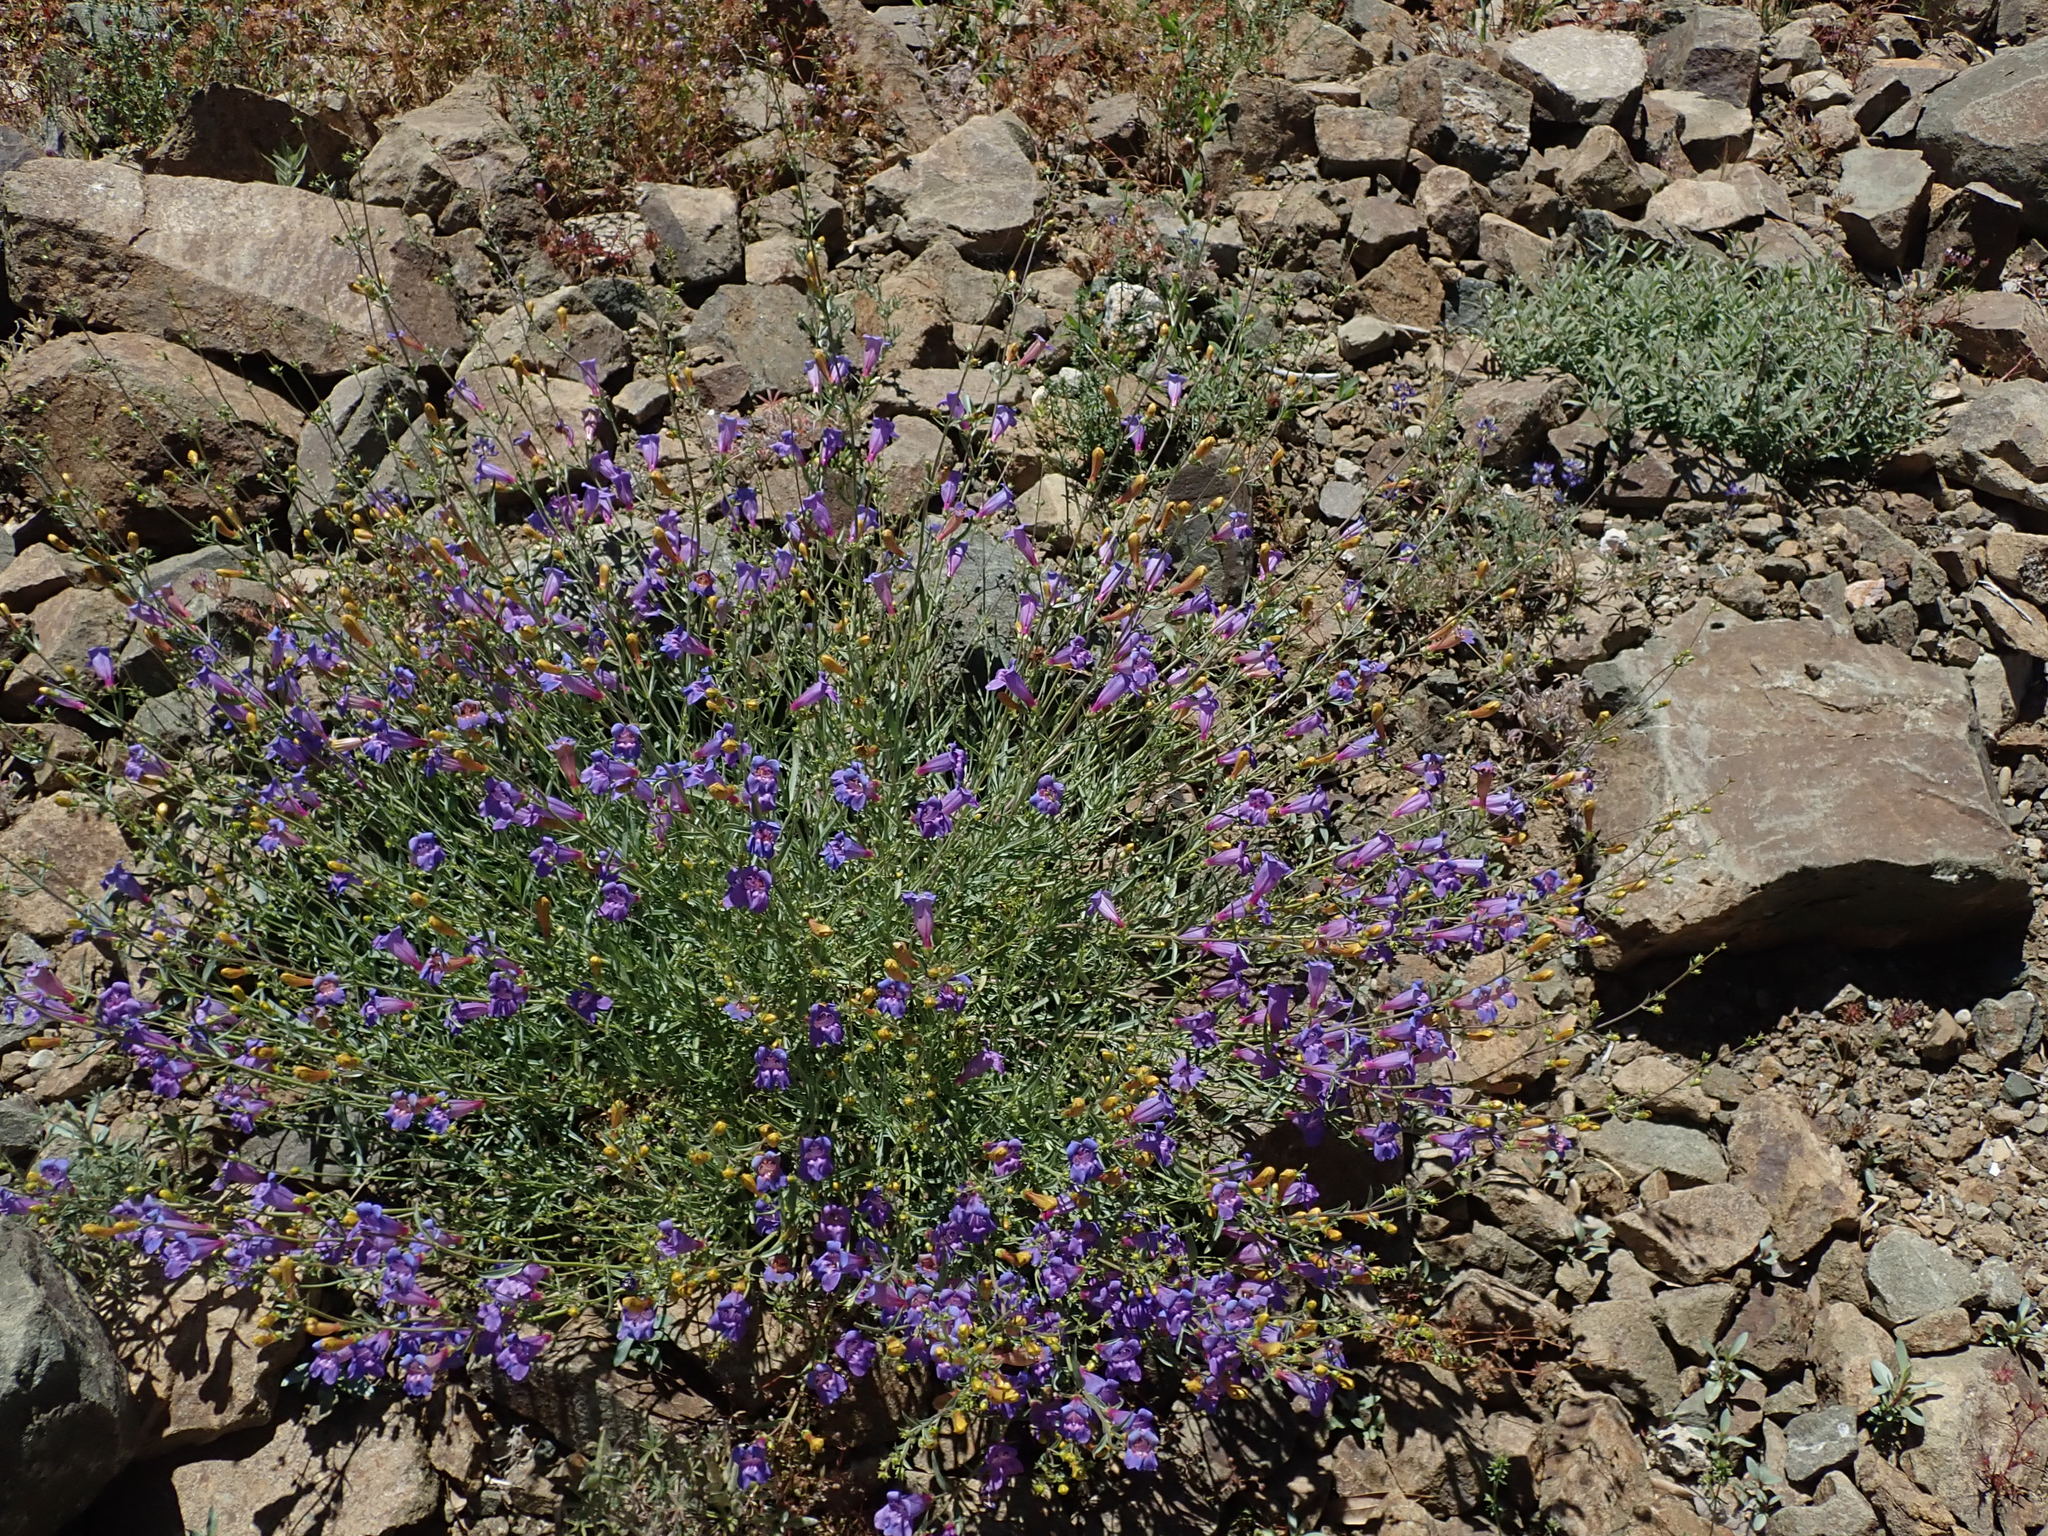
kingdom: Plantae
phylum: Tracheophyta
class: Magnoliopsida
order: Lamiales
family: Plantaginaceae
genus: Penstemon
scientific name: Penstemon heterophyllus
